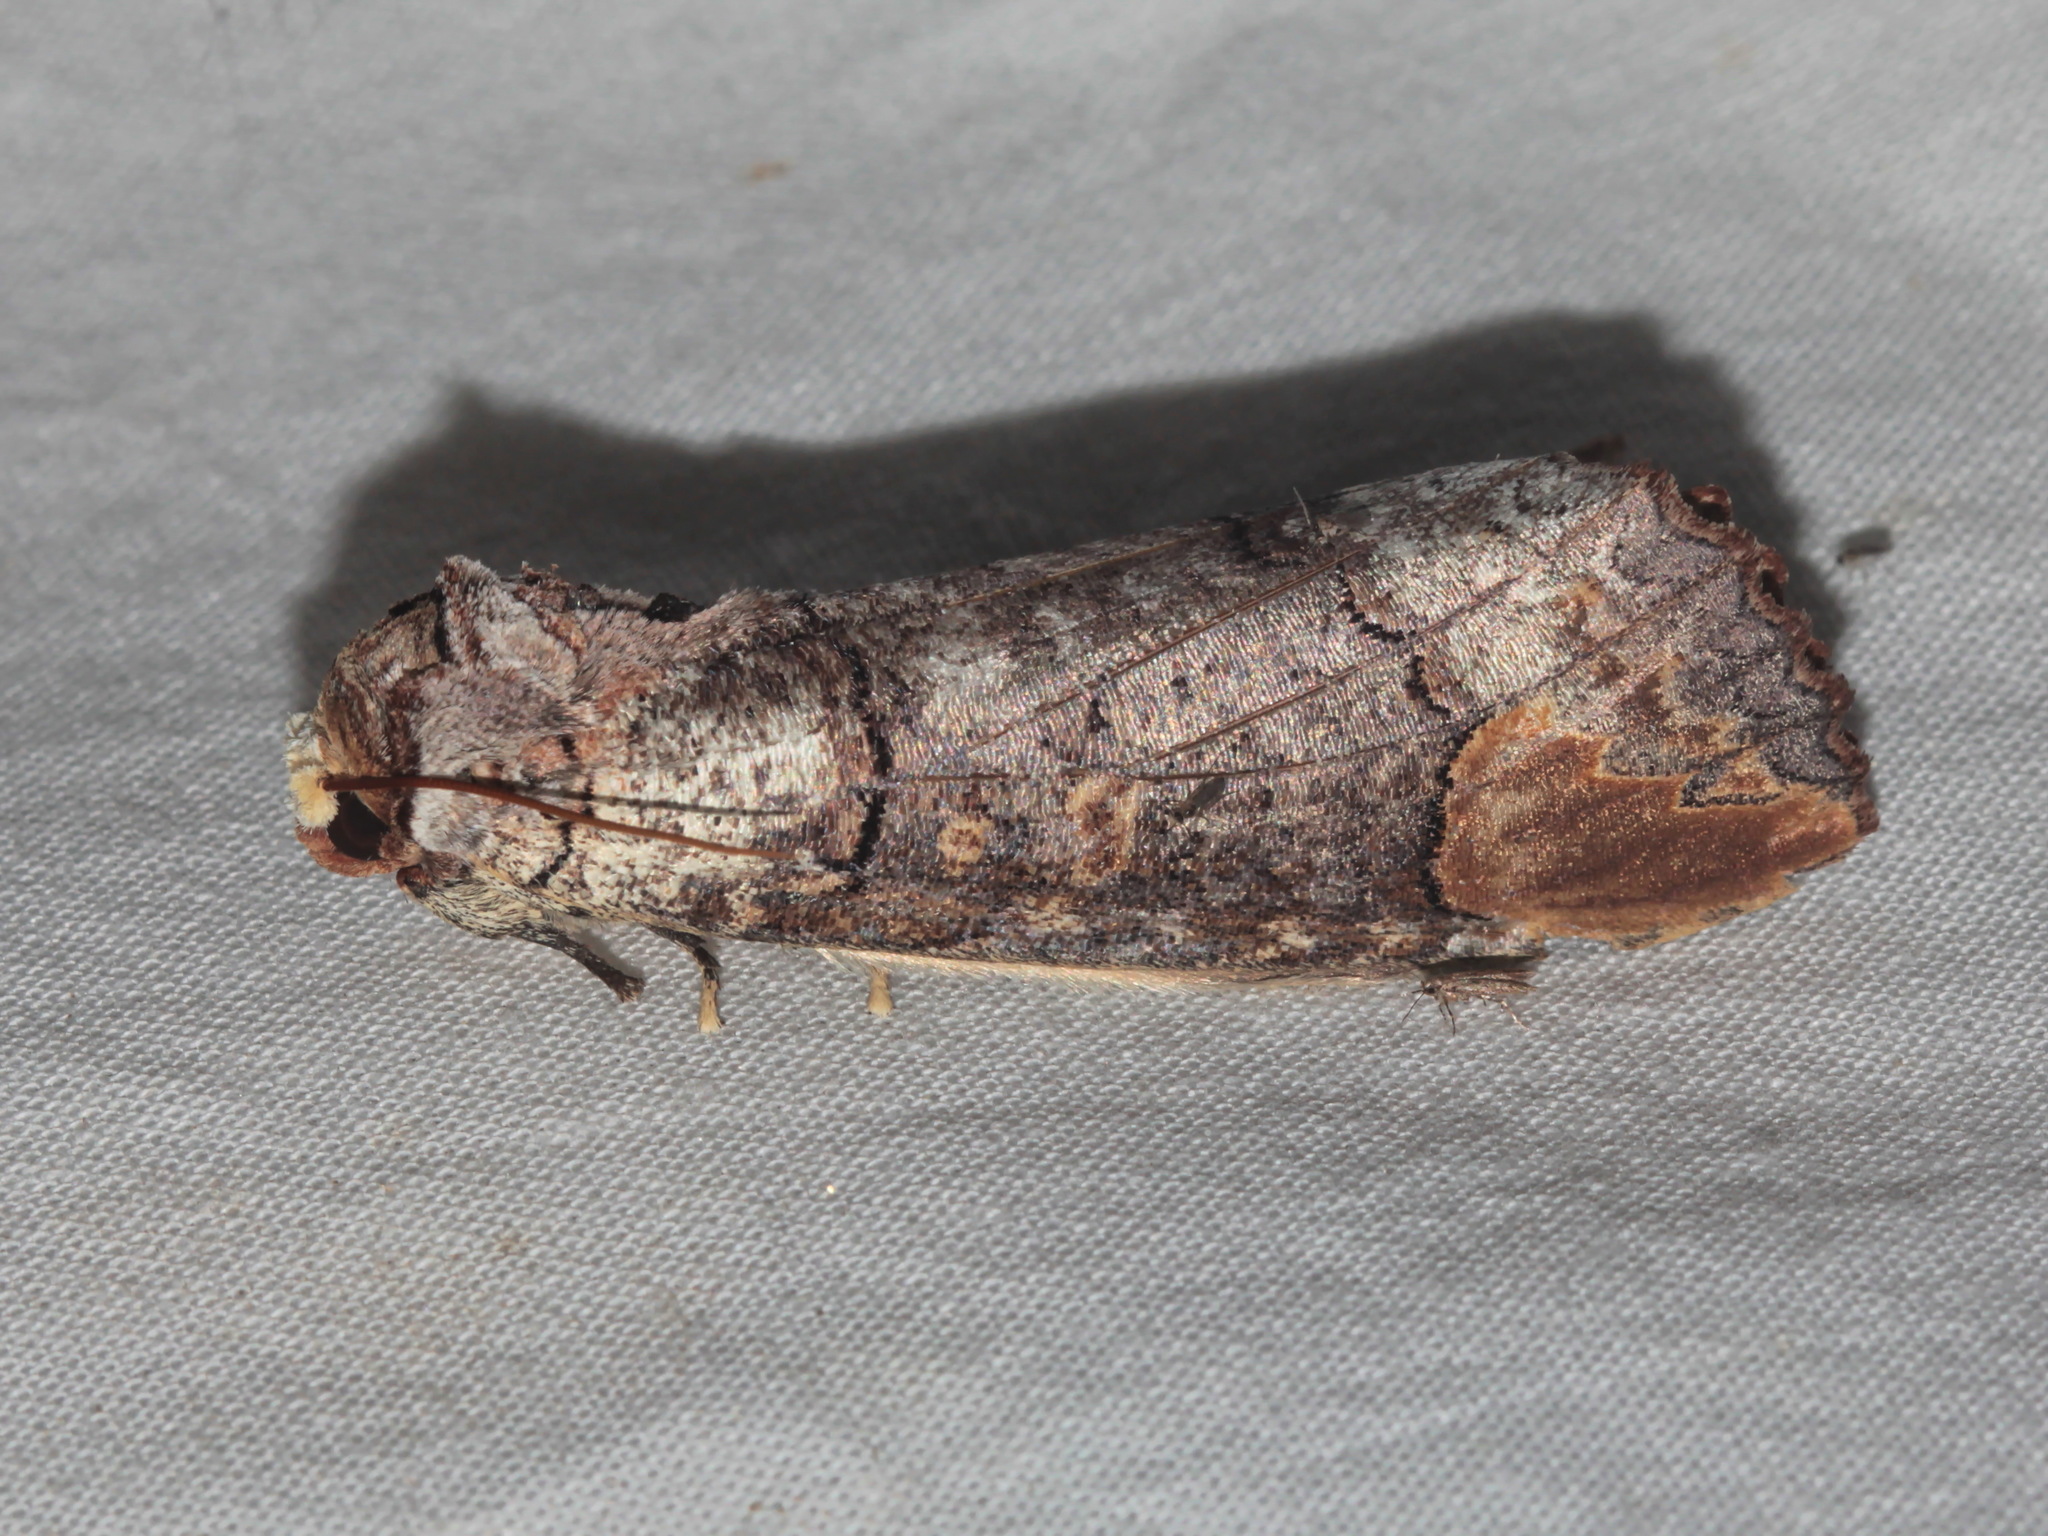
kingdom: Animalia
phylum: Arthropoda
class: Insecta
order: Lepidoptera
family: Notodontidae
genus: Phalera
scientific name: Phalera grotei
